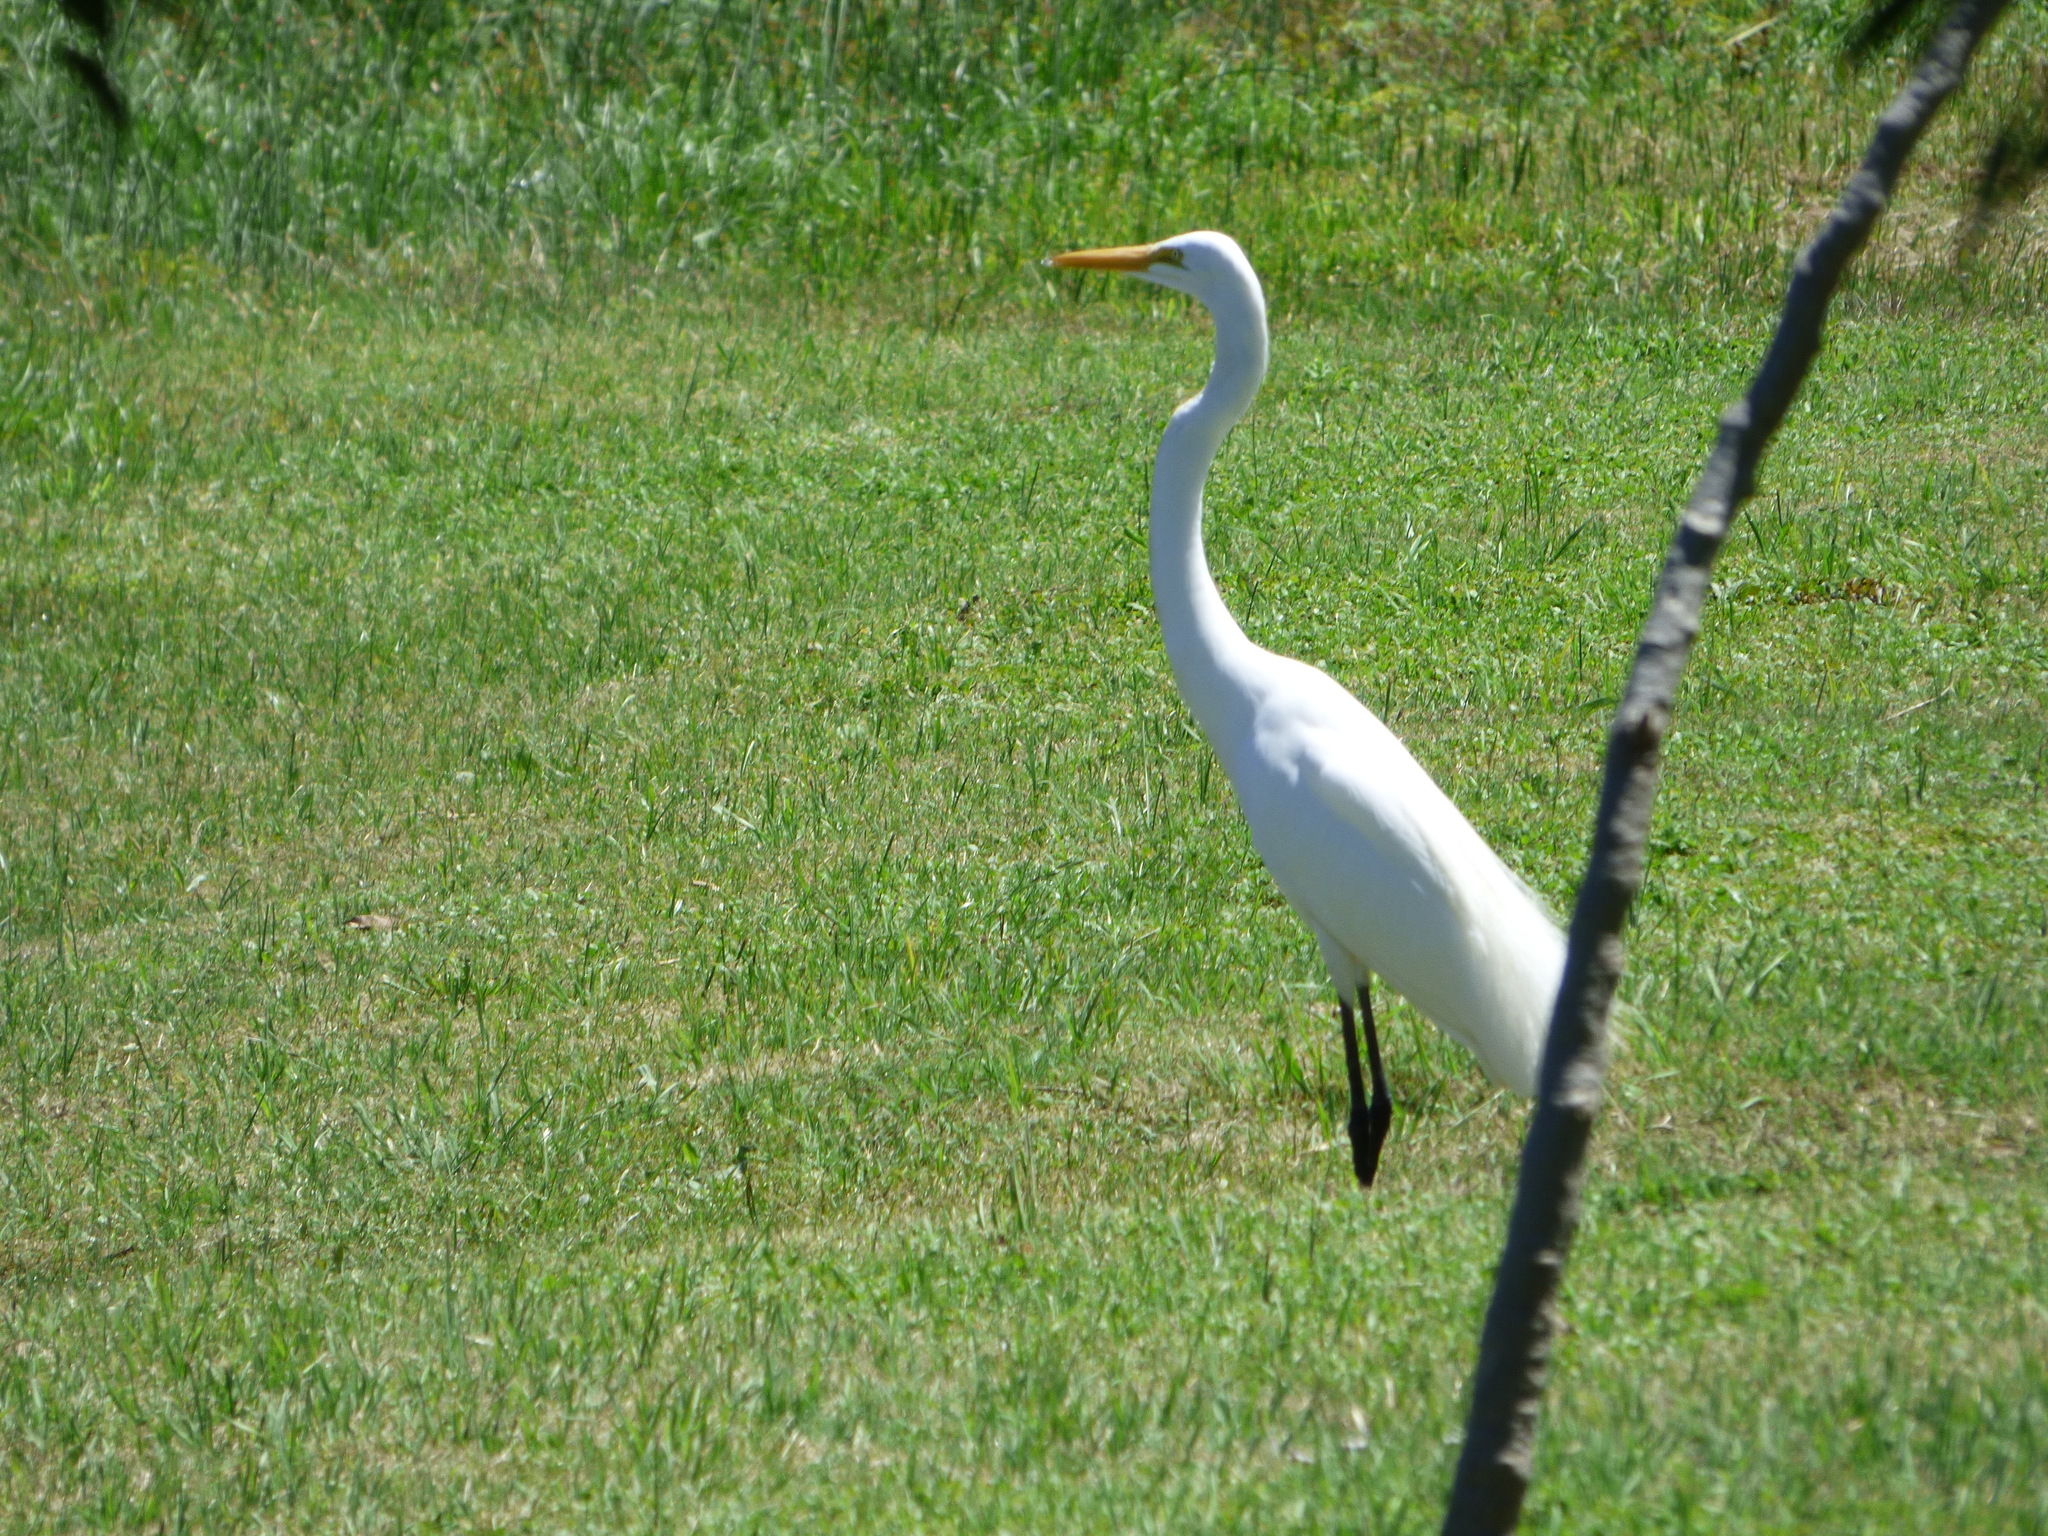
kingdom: Animalia
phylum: Chordata
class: Aves
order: Pelecaniformes
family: Ardeidae
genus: Ardea
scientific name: Ardea alba
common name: Great egret
